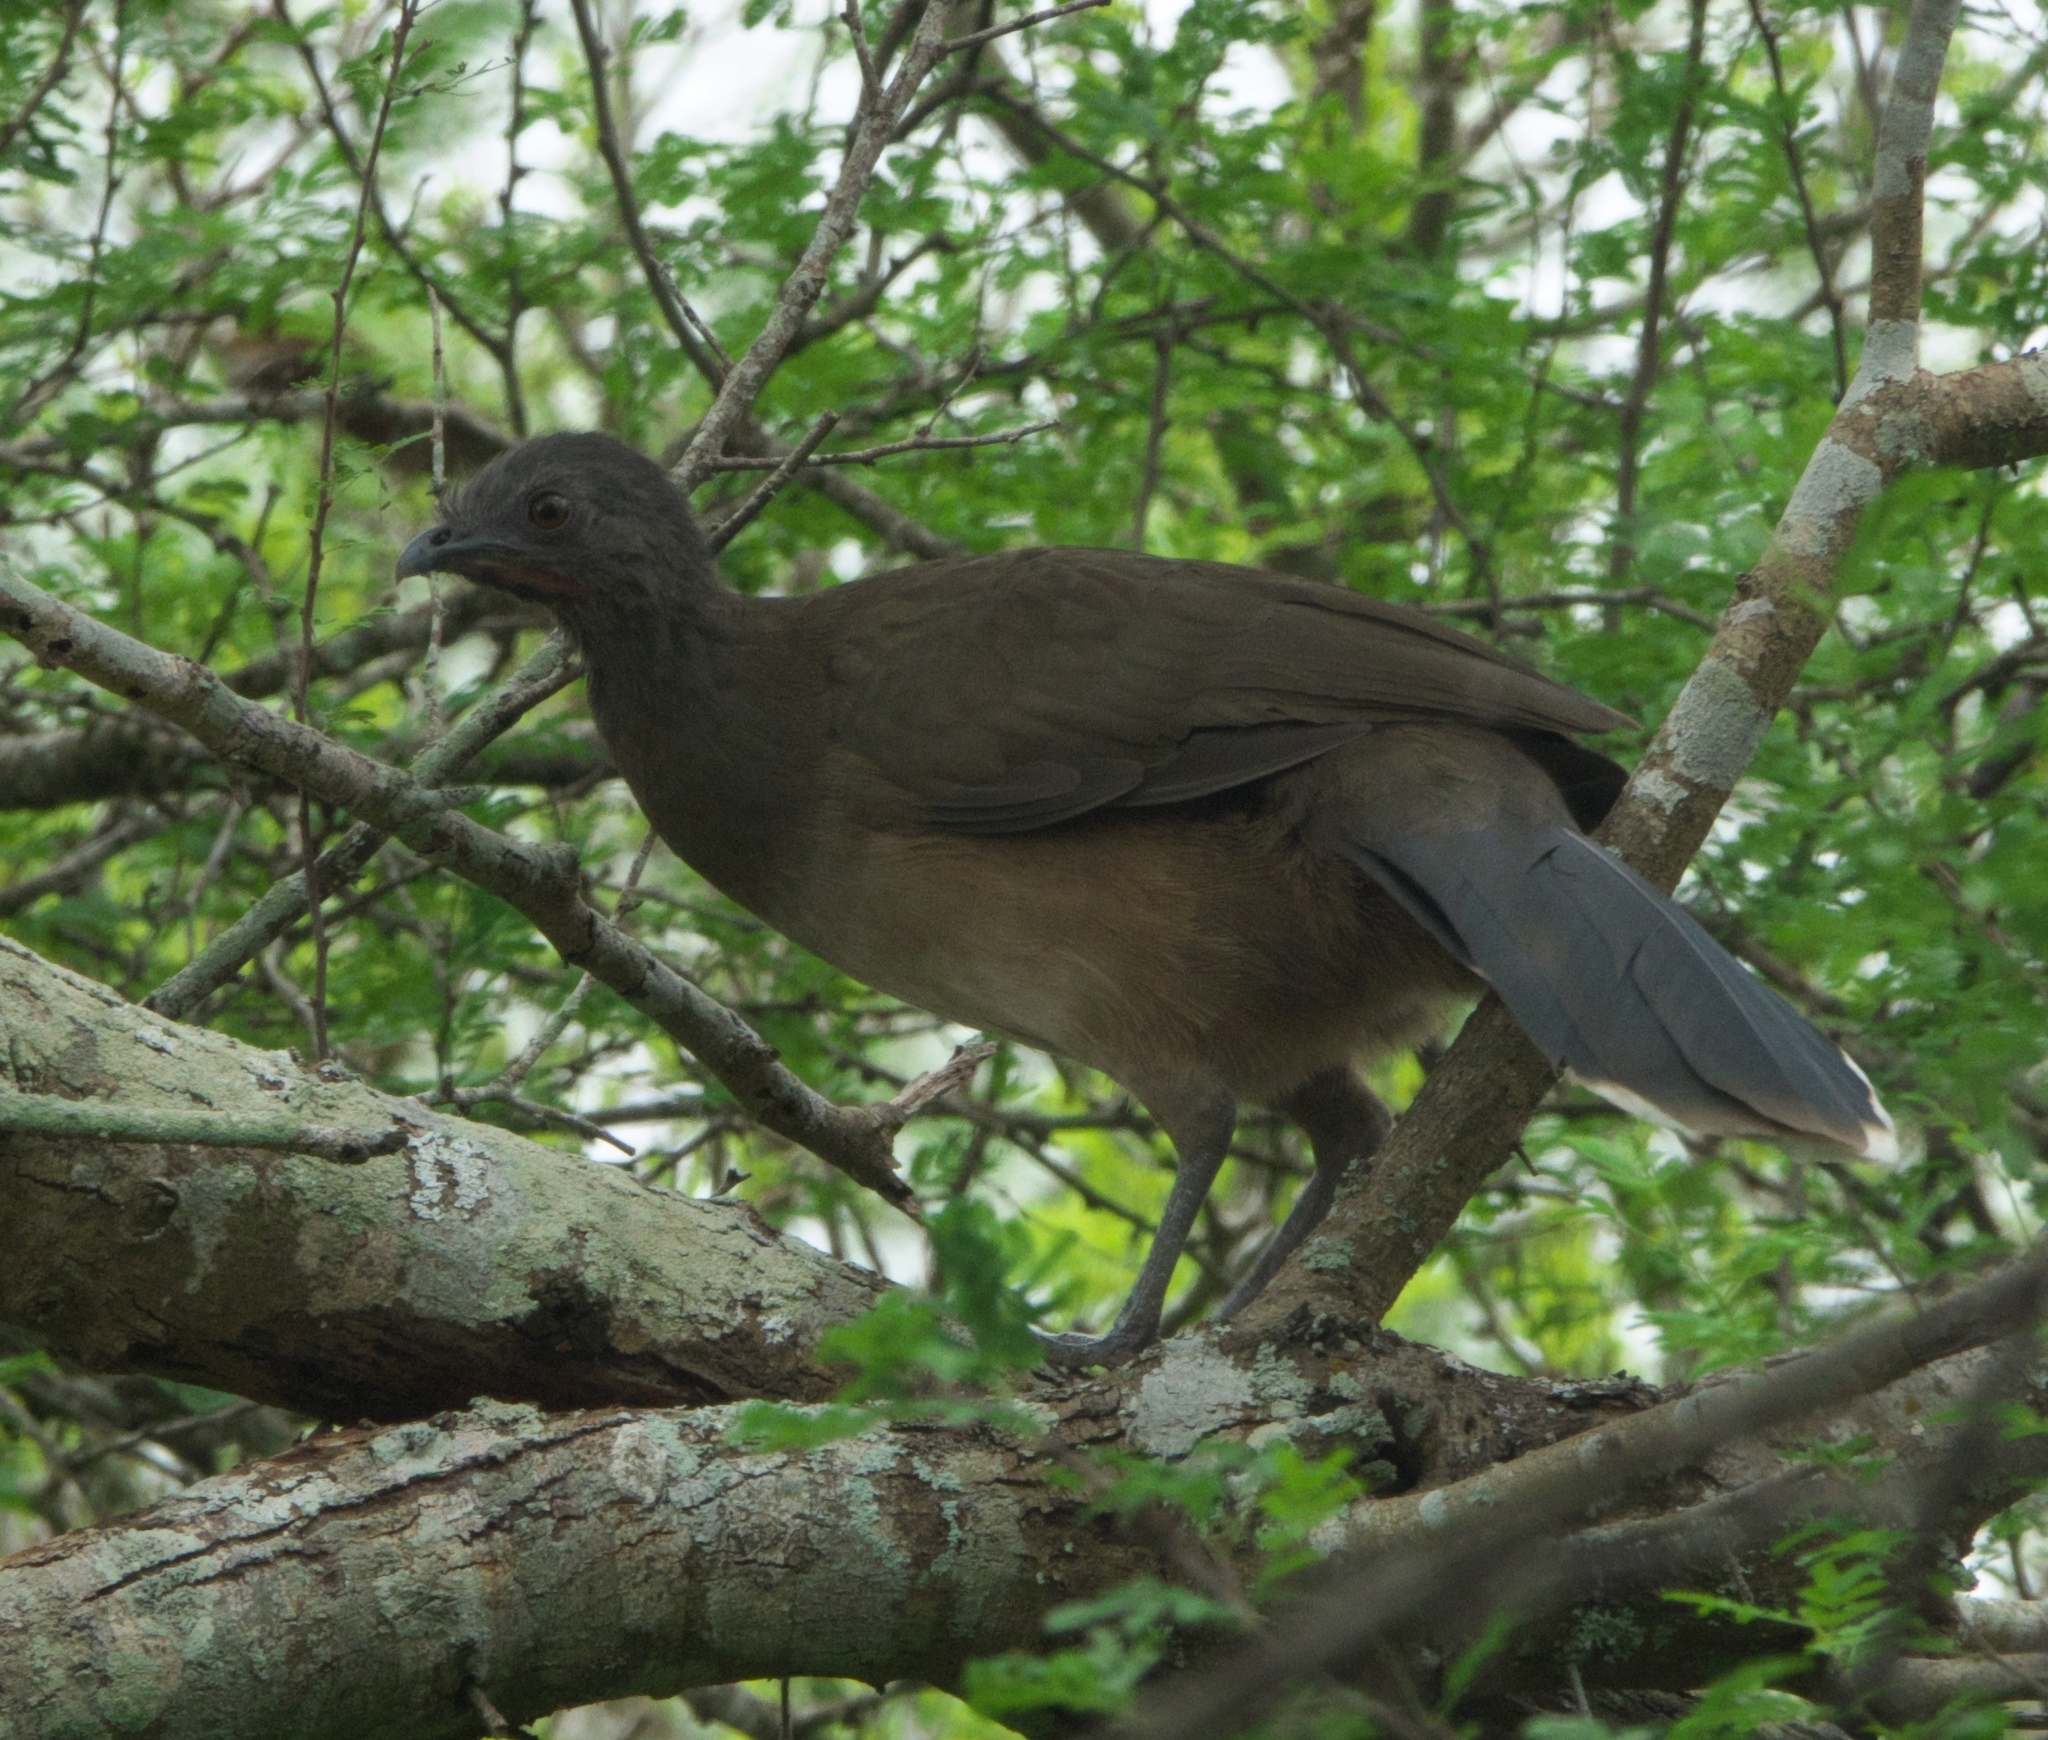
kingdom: Animalia
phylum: Chordata
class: Aves
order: Galliformes
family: Cracidae
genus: Ortalis
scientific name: Ortalis vetula
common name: Plain chachalaca
